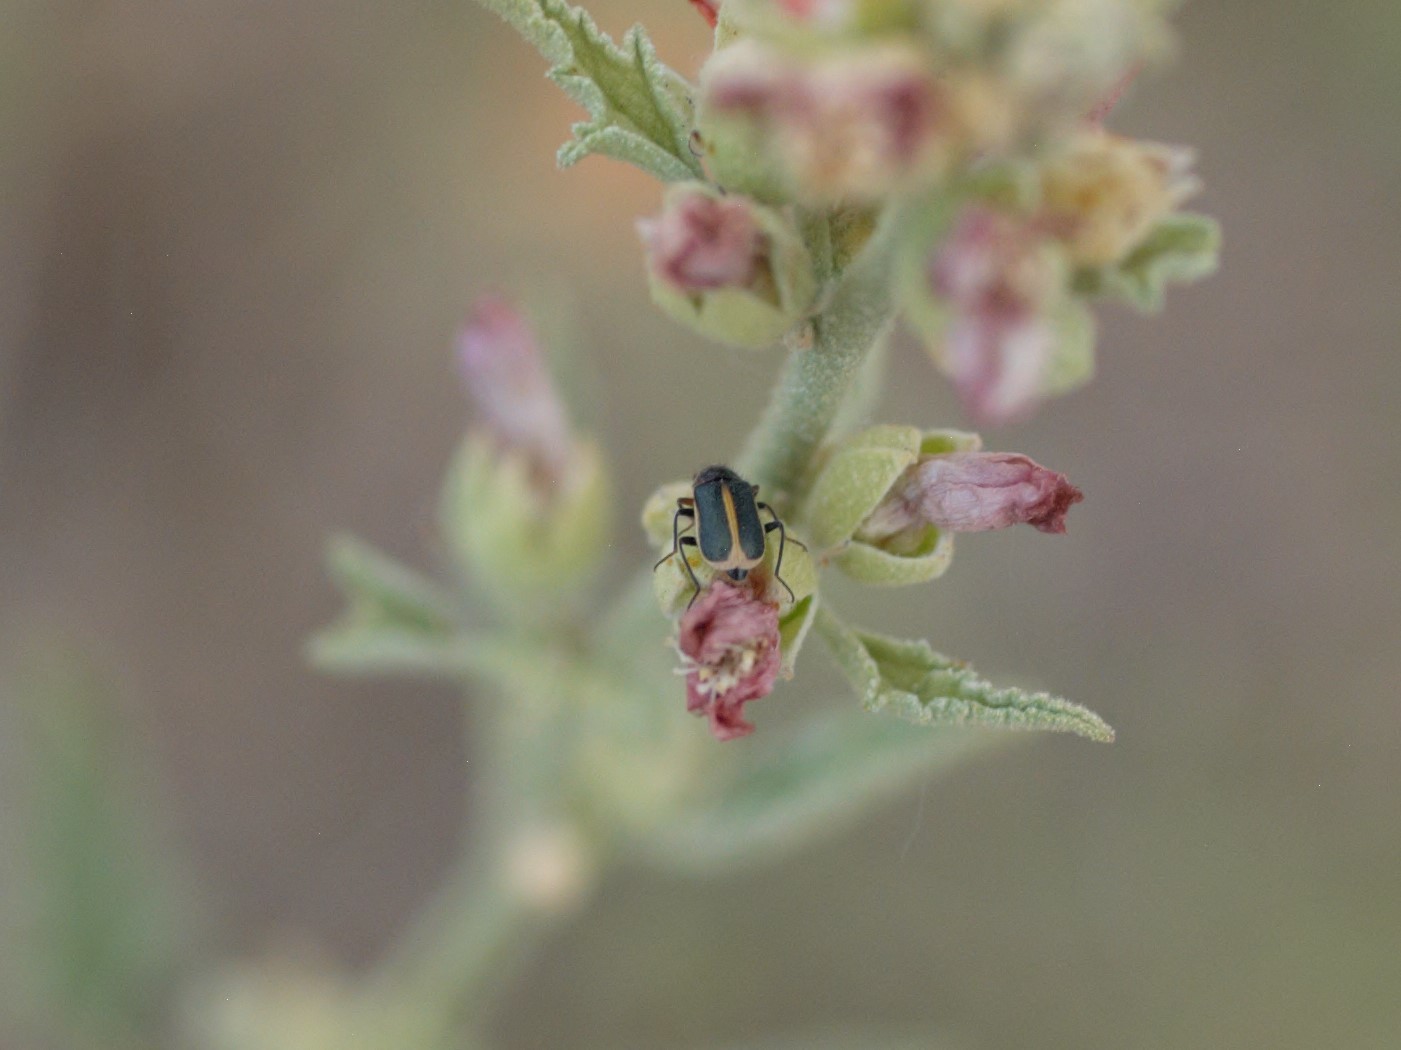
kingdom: Animalia
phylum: Arthropoda
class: Insecta
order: Coleoptera
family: Malachiidae
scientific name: Malachiidae
